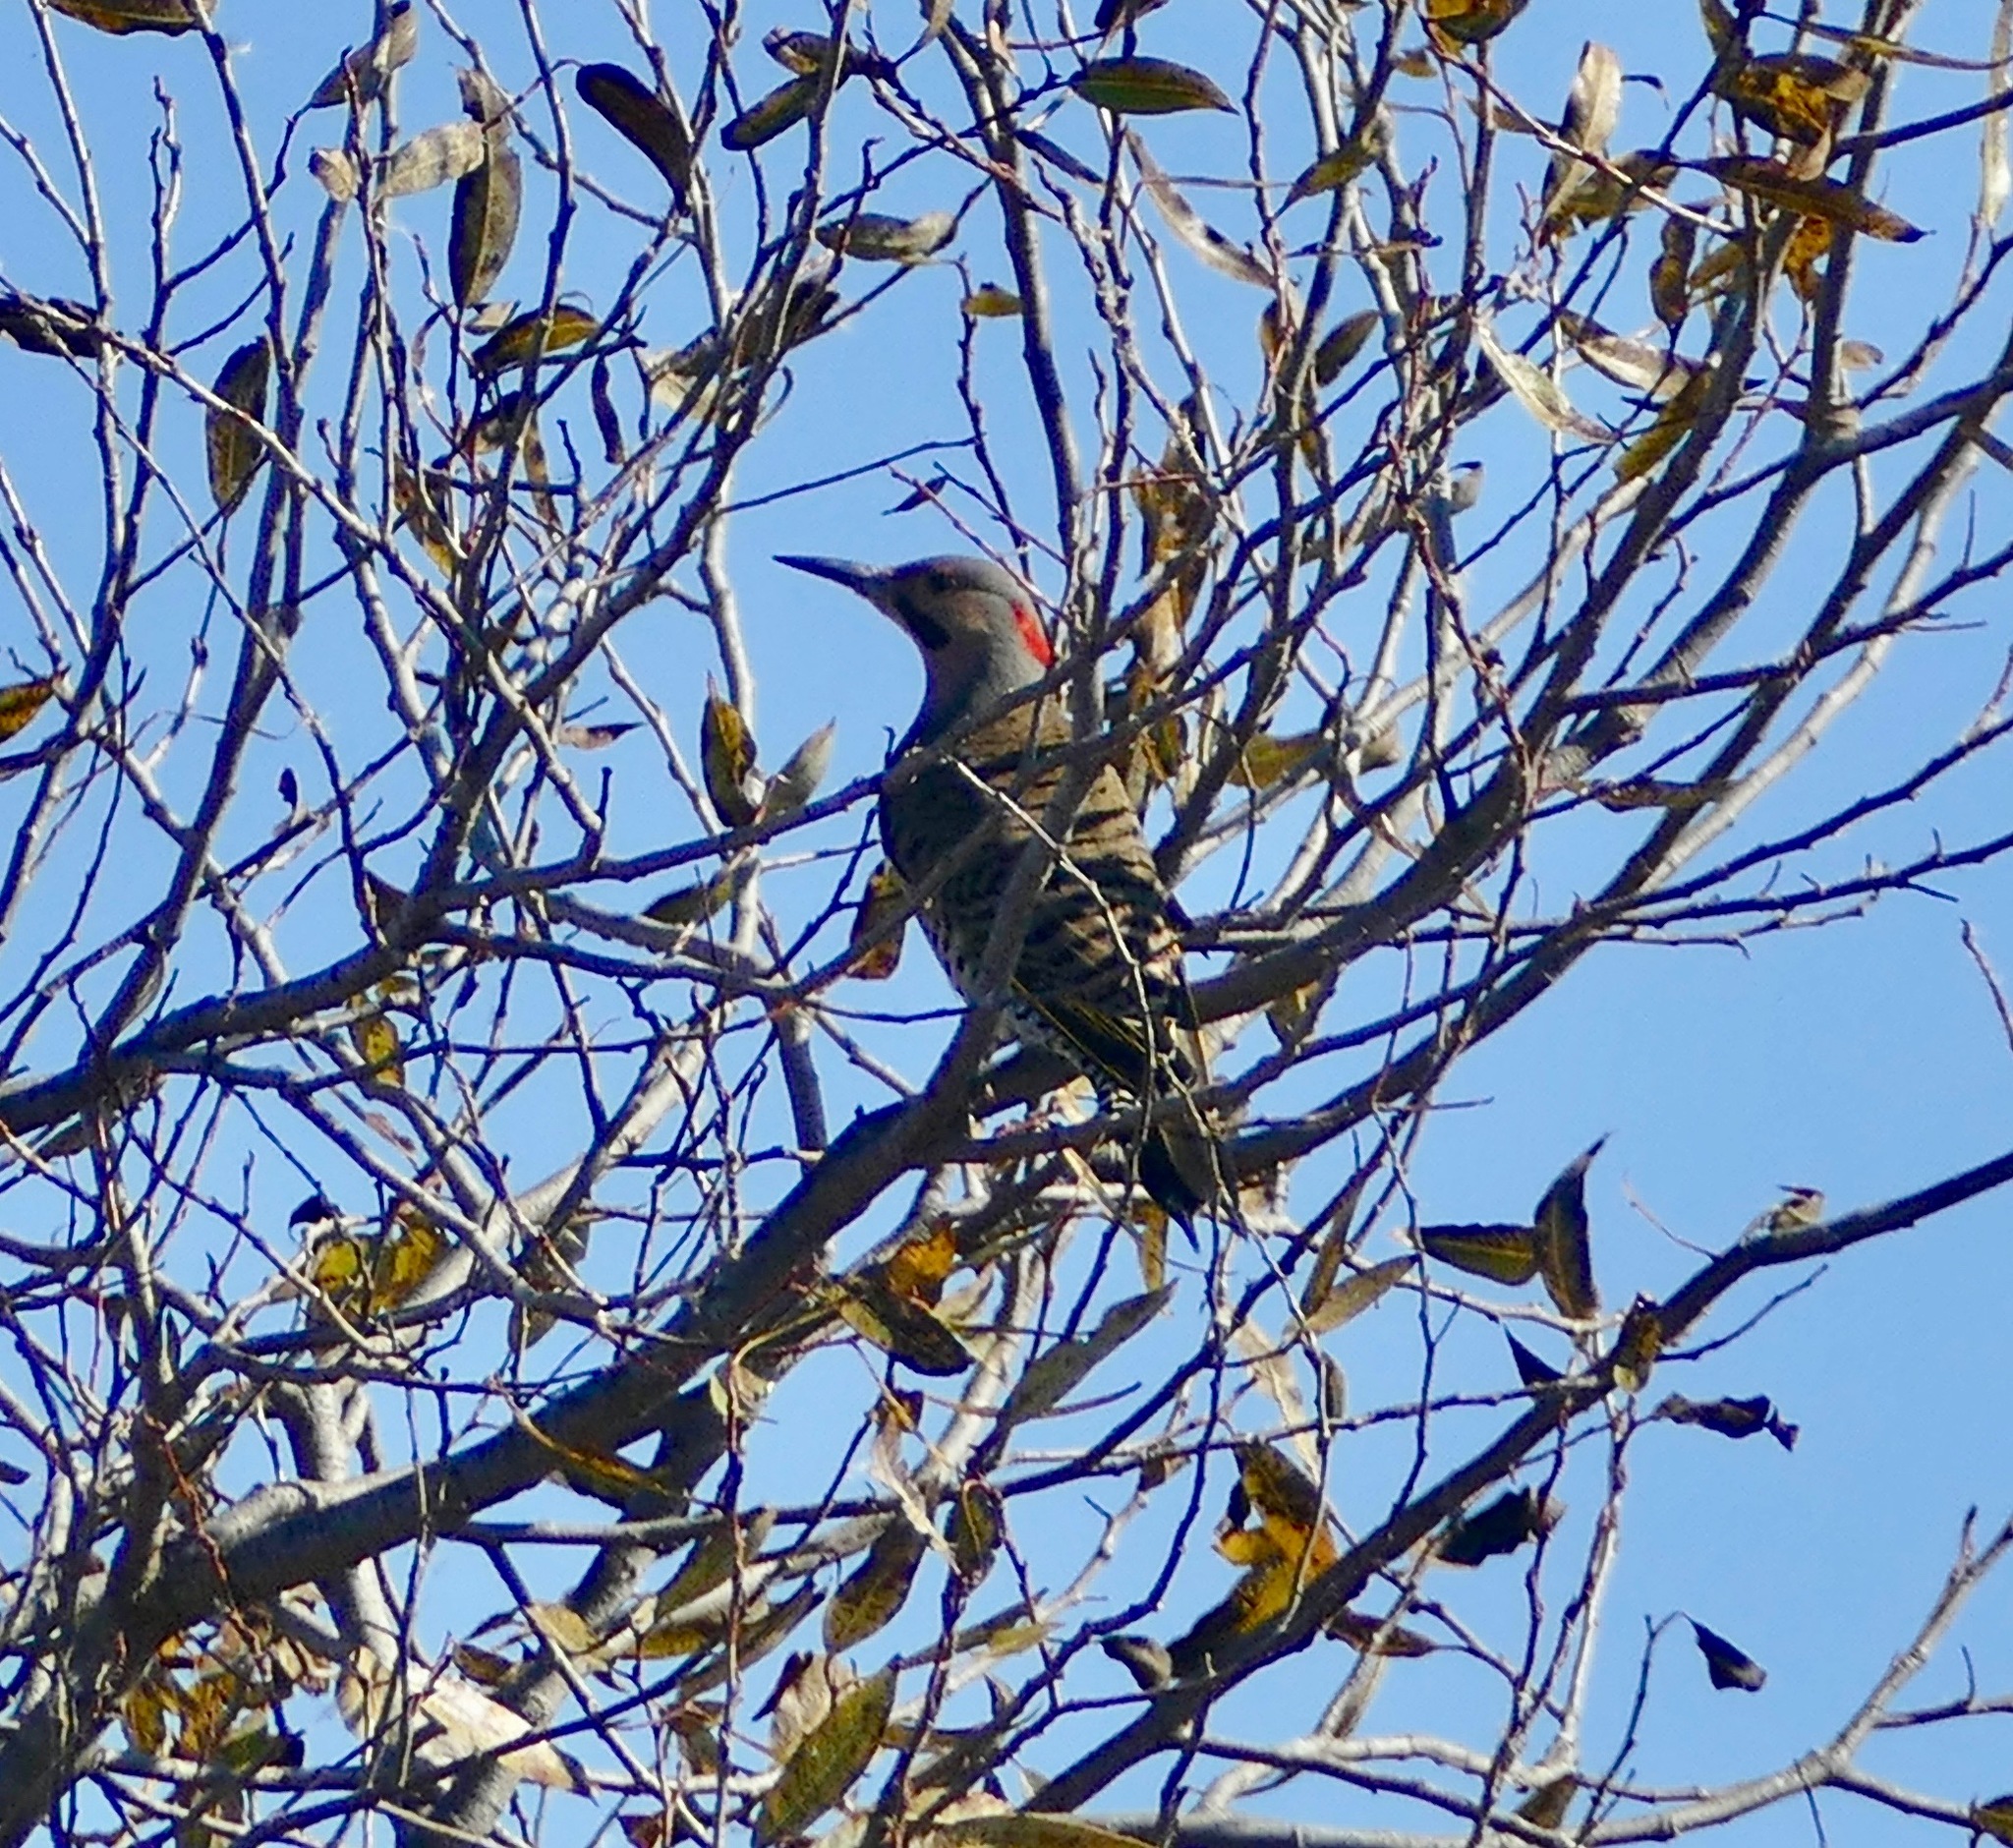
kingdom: Animalia
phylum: Chordata
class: Aves
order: Piciformes
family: Picidae
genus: Colaptes
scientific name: Colaptes auratus
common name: Northern flicker
